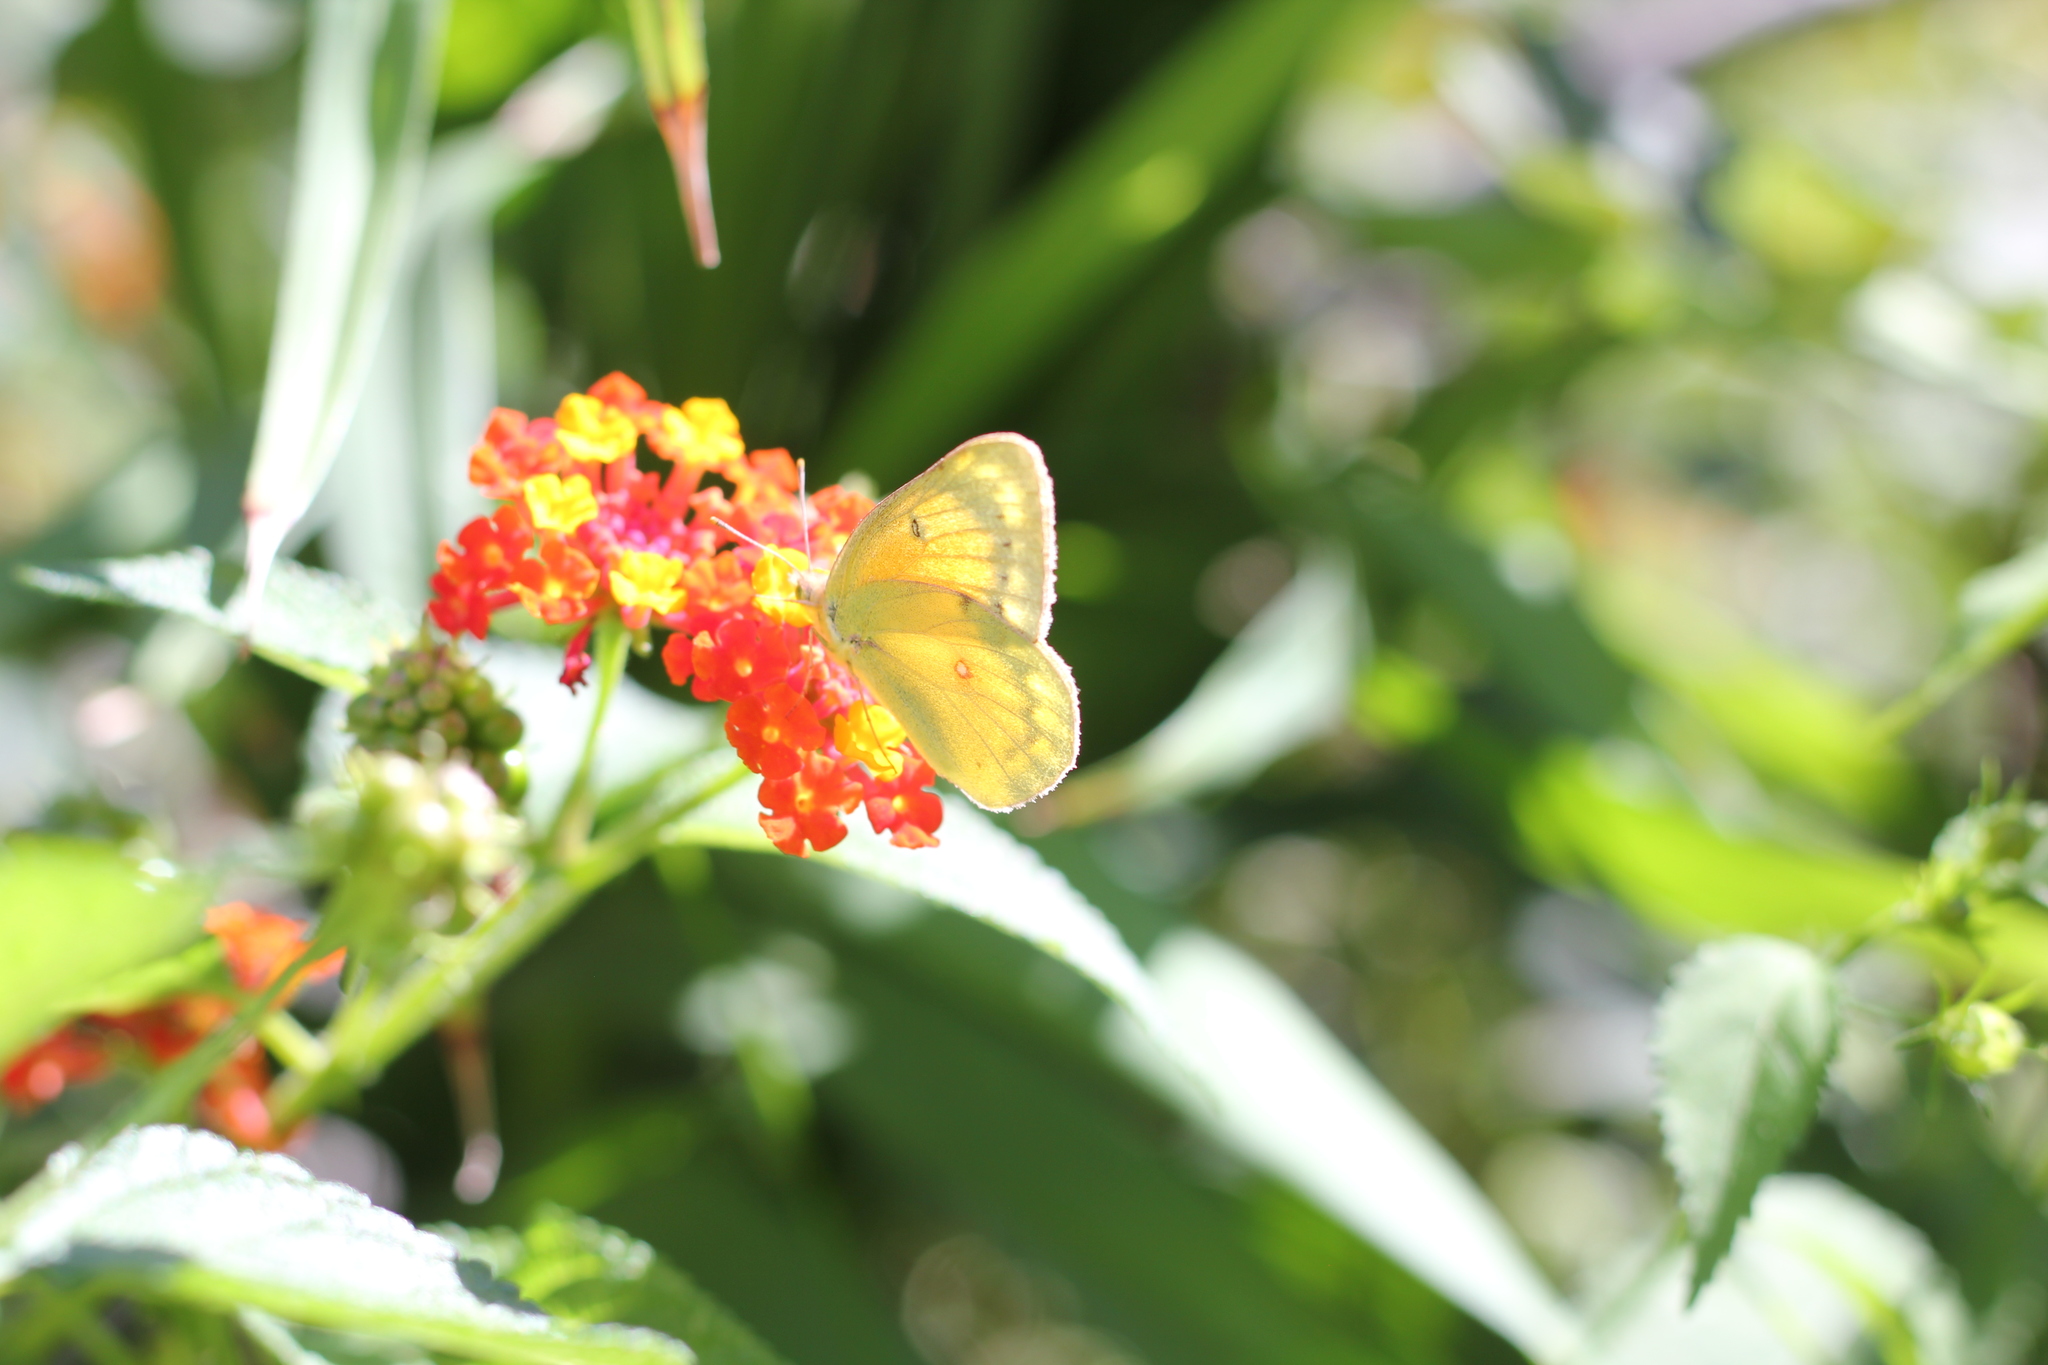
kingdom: Animalia
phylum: Arthropoda
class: Insecta
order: Lepidoptera
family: Pieridae
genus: Colias
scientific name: Colias lesbia
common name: Lesbia clouded yellow
